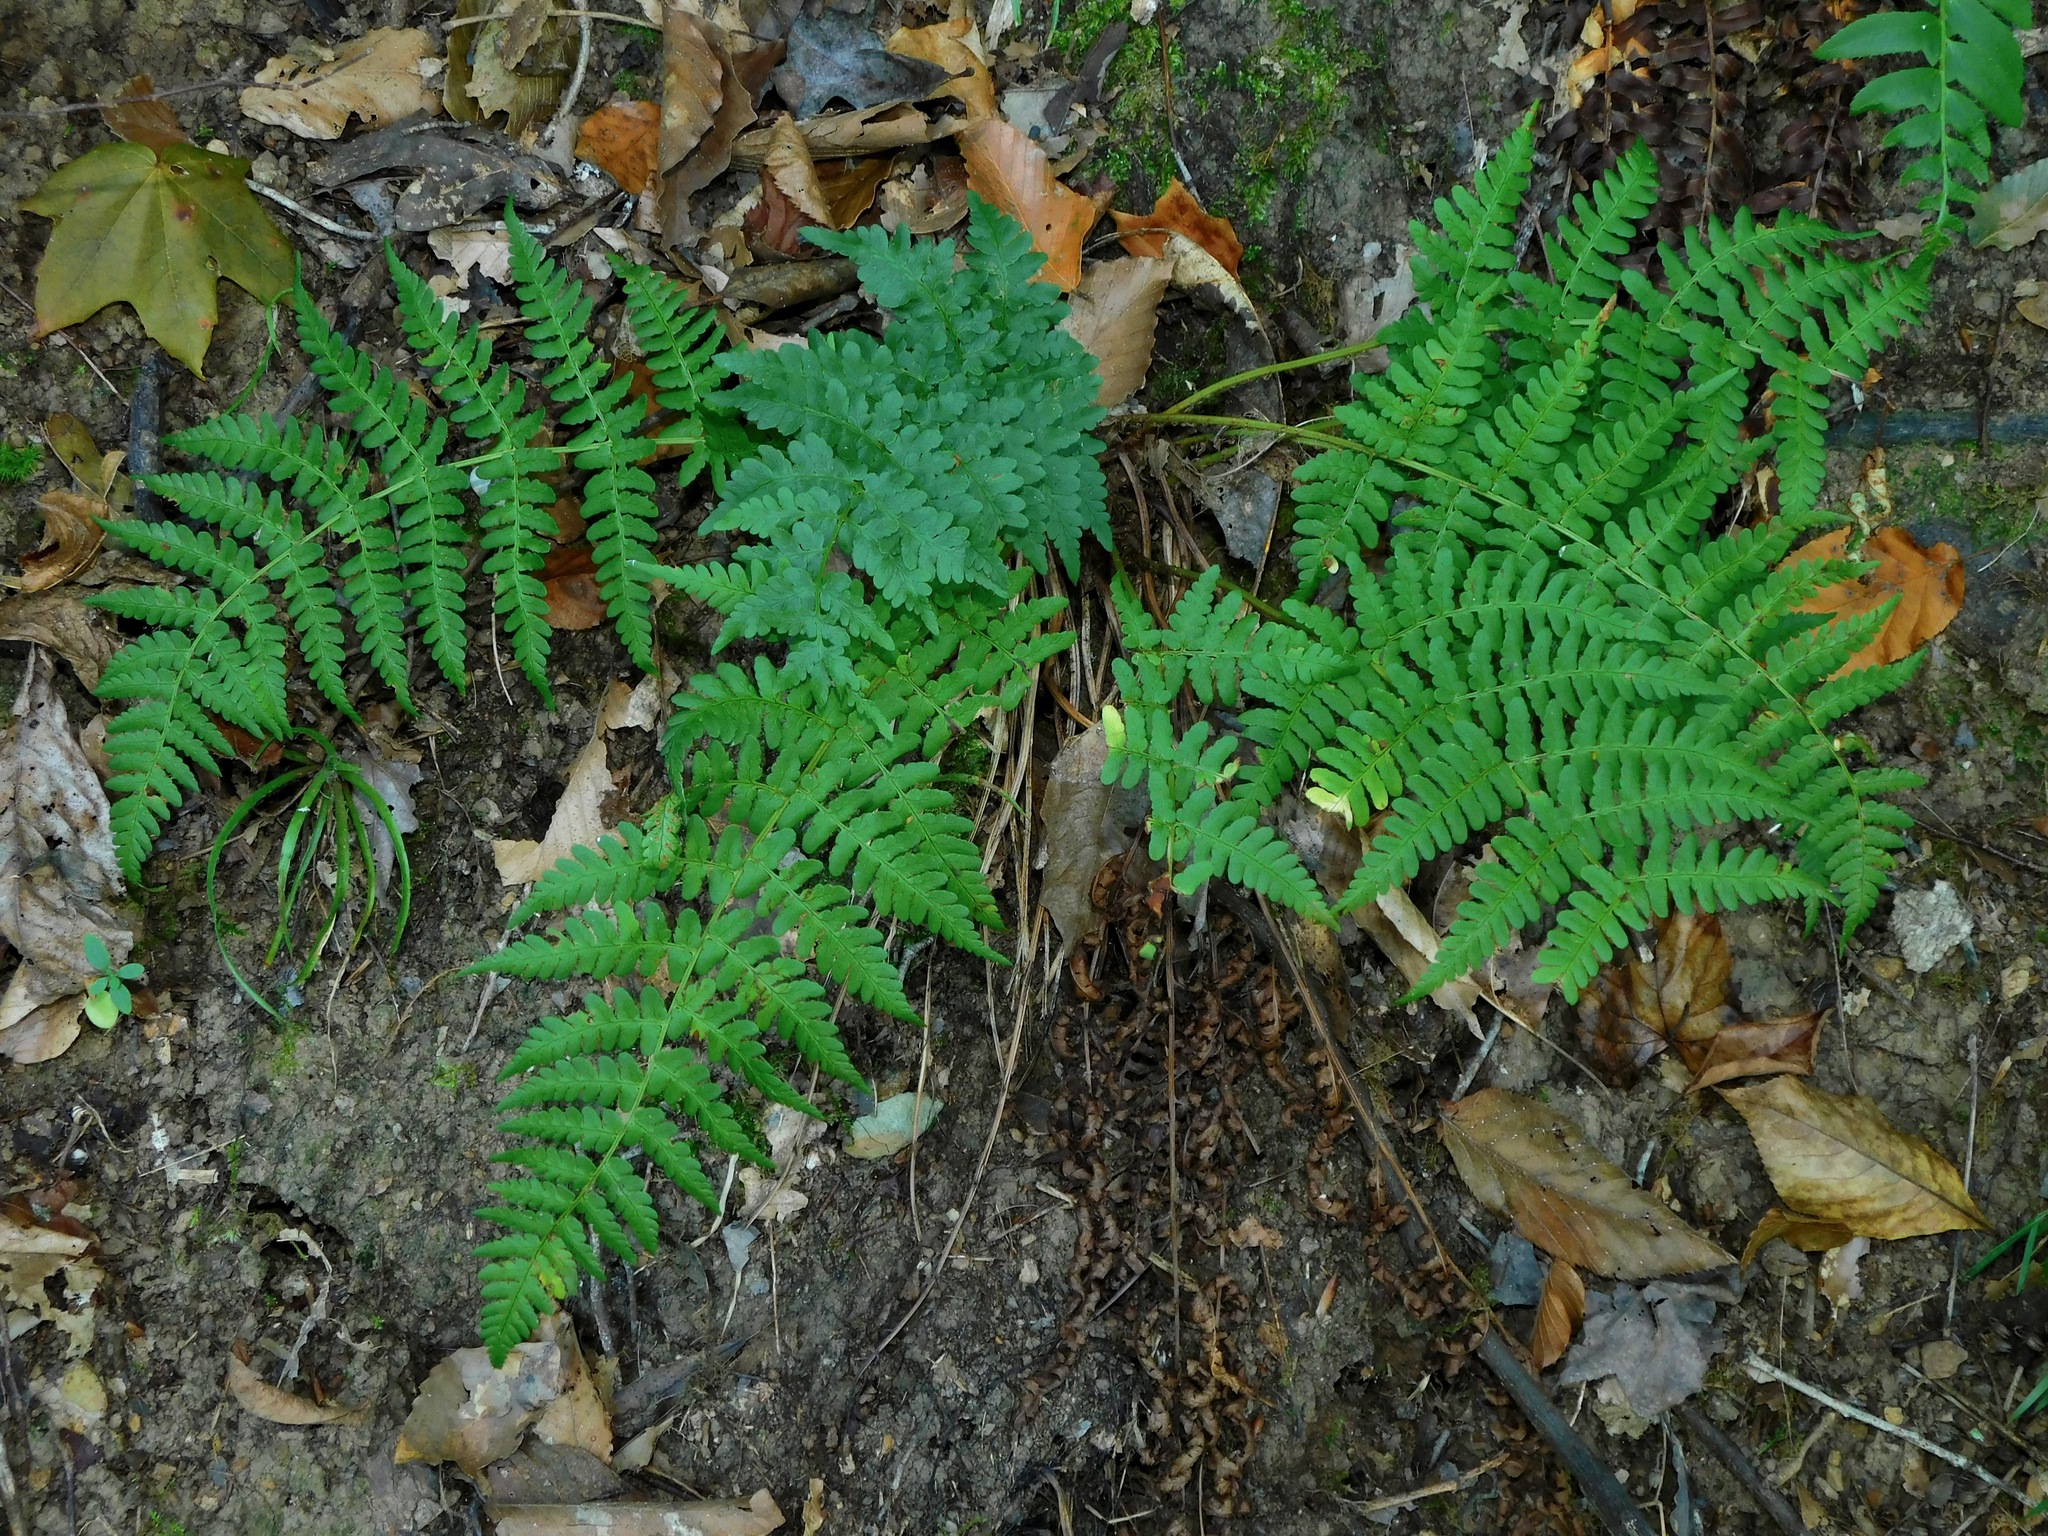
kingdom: Plantae
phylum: Tracheophyta
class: Polypodiopsida
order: Polypodiales
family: Dryopteridaceae
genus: Dryopteris
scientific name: Dryopteris marginalis
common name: Marginal wood fern
